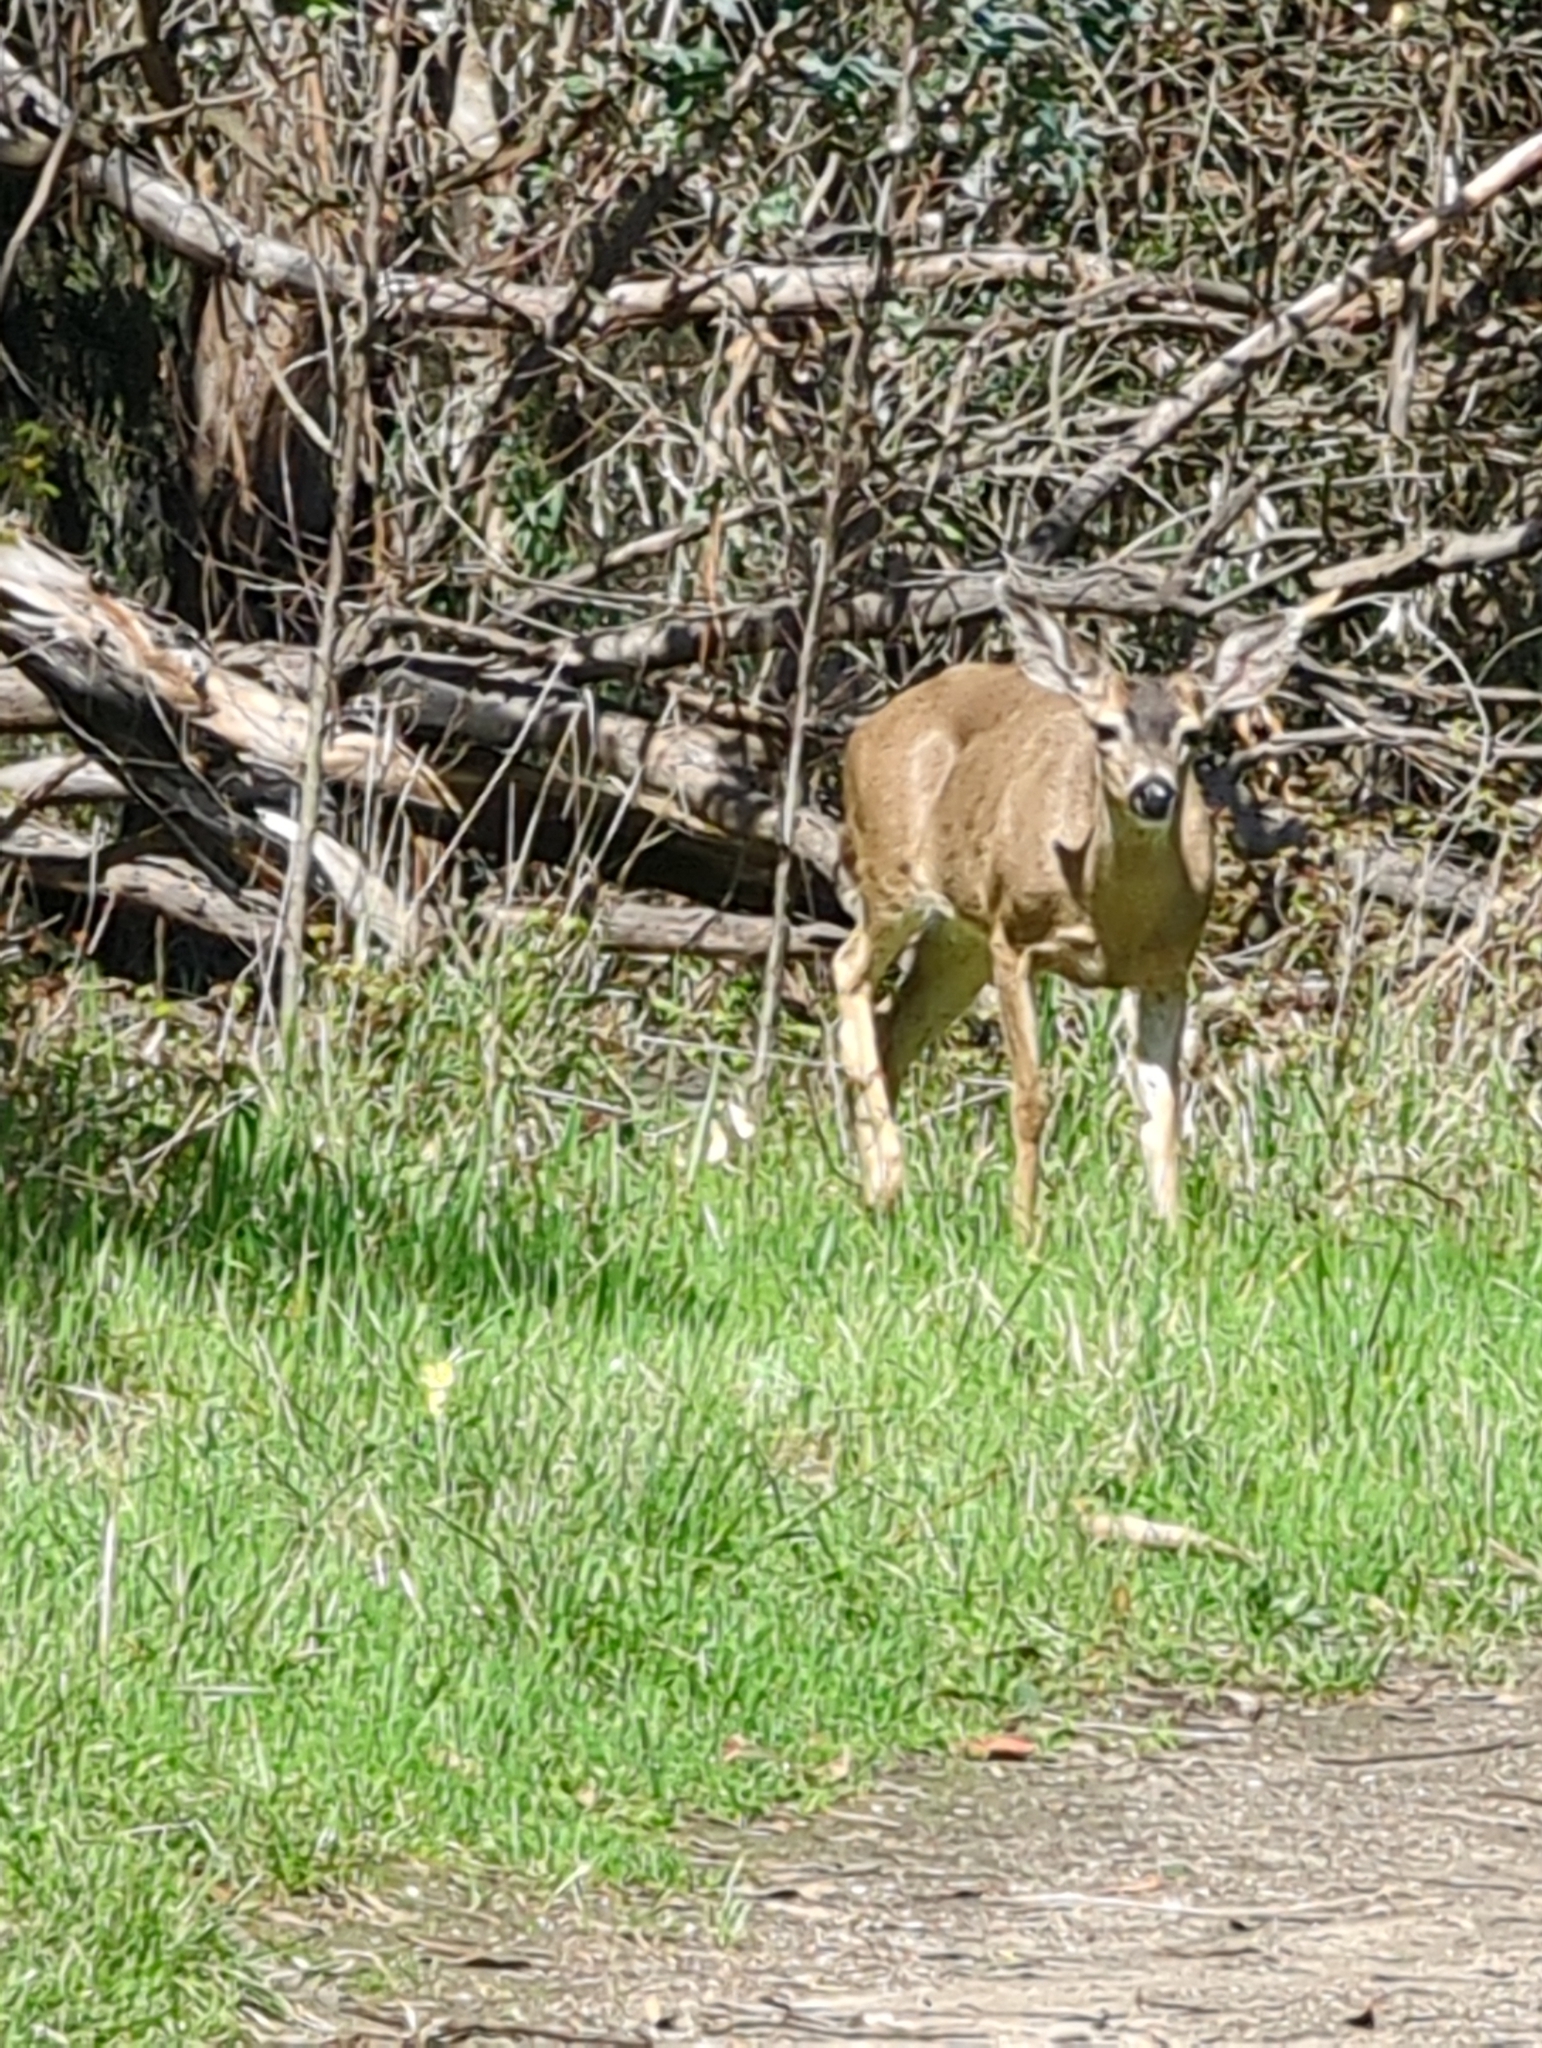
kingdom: Animalia
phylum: Chordata
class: Mammalia
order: Artiodactyla
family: Cervidae
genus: Odocoileus
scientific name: Odocoileus hemionus
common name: Mule deer
